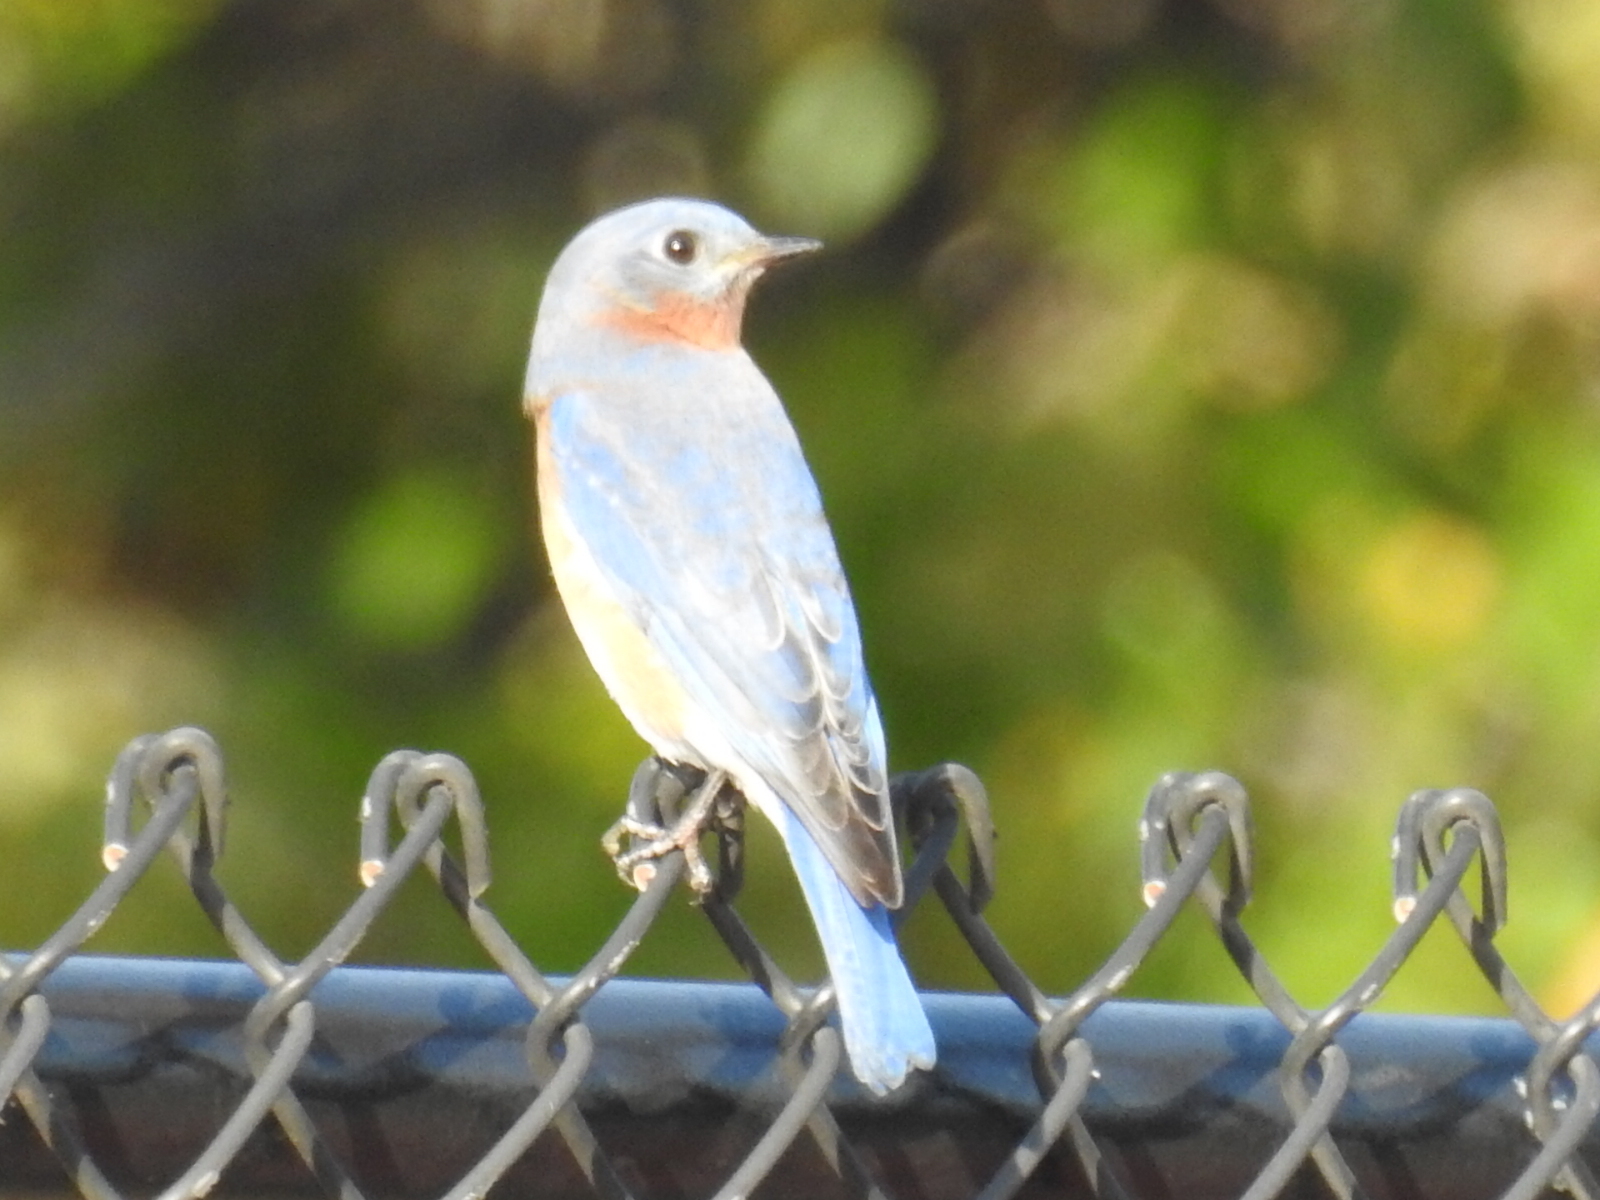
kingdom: Animalia
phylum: Chordata
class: Aves
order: Passeriformes
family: Turdidae
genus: Sialia
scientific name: Sialia sialis
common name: Eastern bluebird
